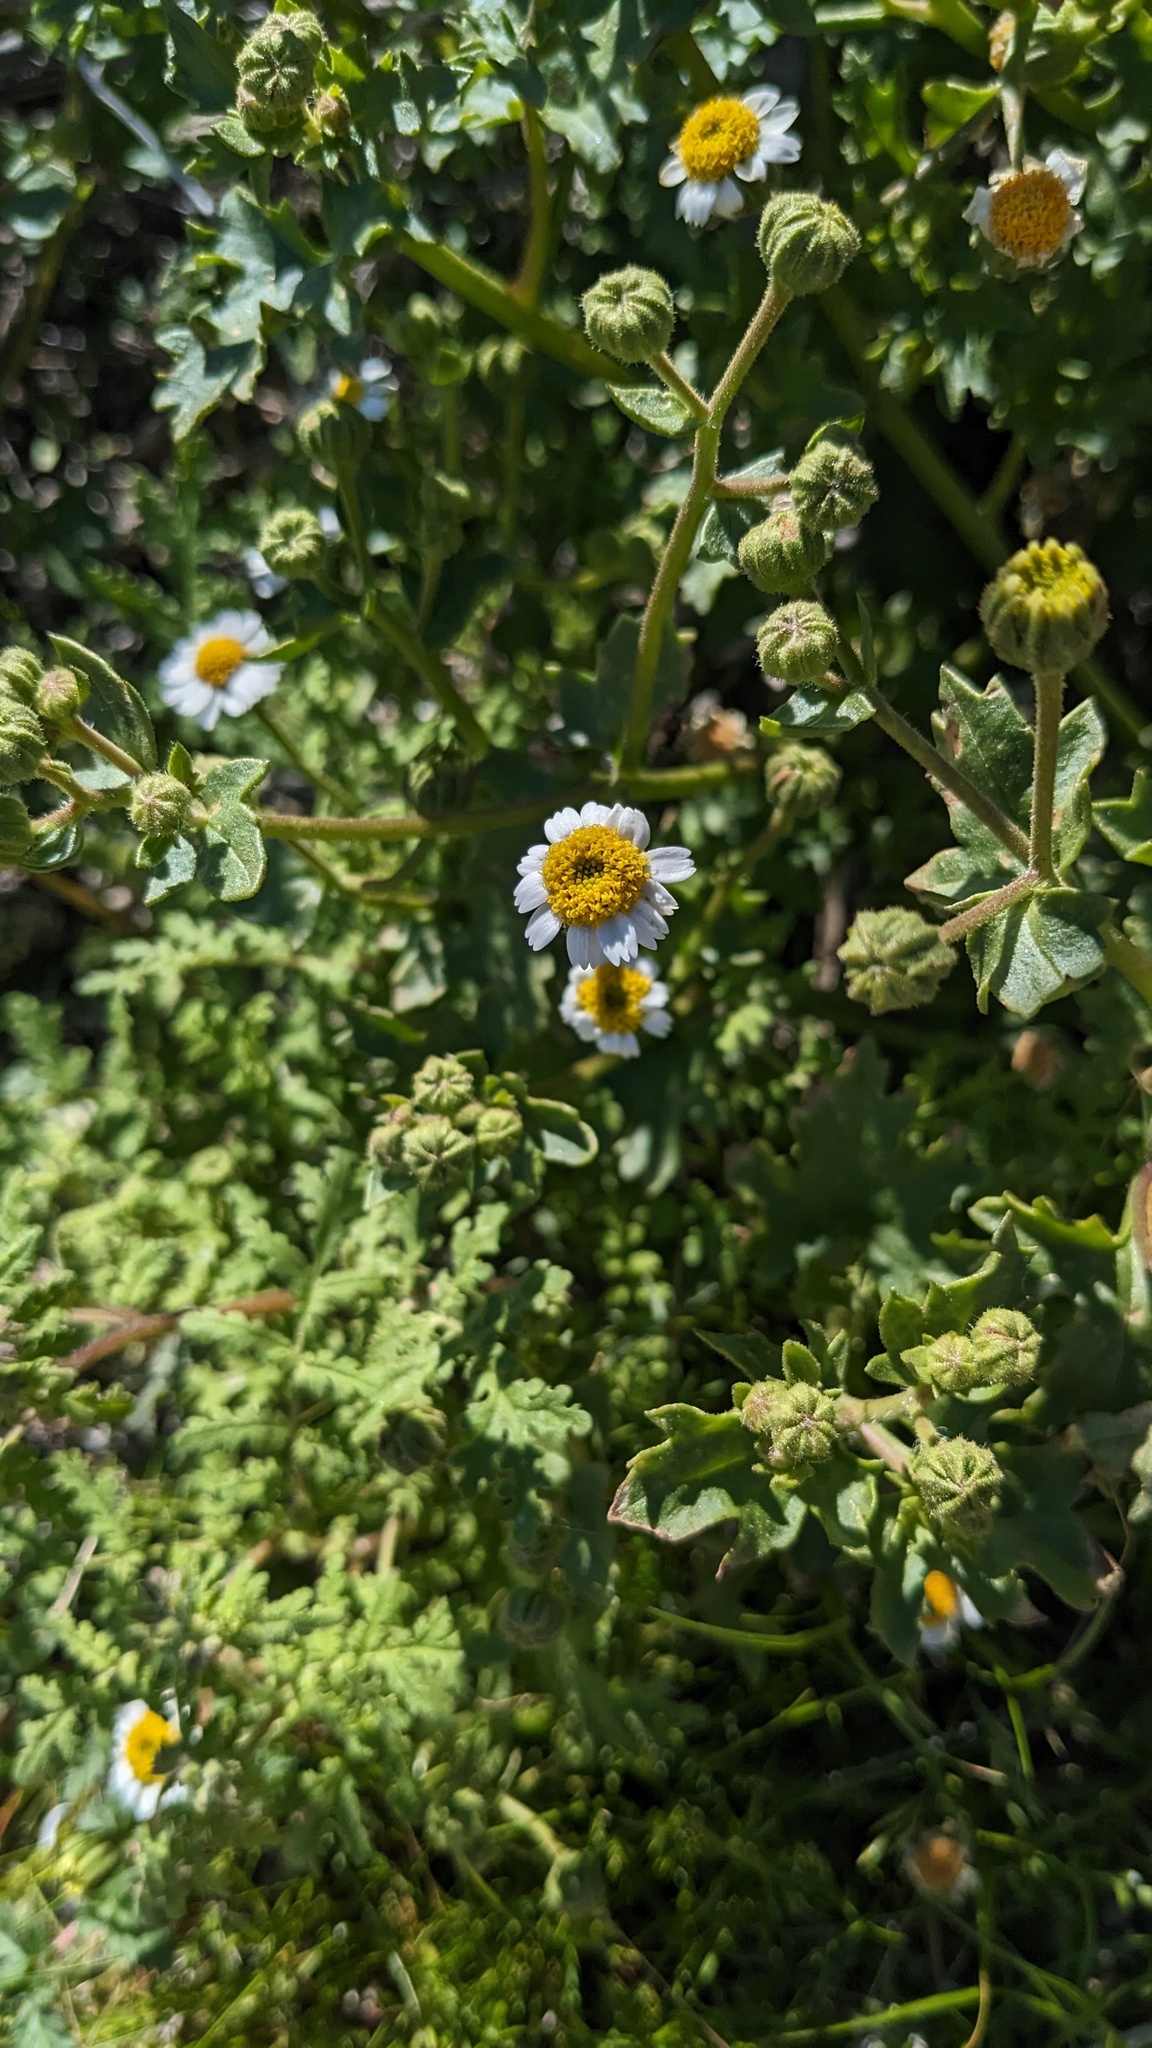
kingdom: Plantae
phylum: Tracheophyta
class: Magnoliopsida
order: Asterales
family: Asteraceae
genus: Laphamia
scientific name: Laphamia emoryi
